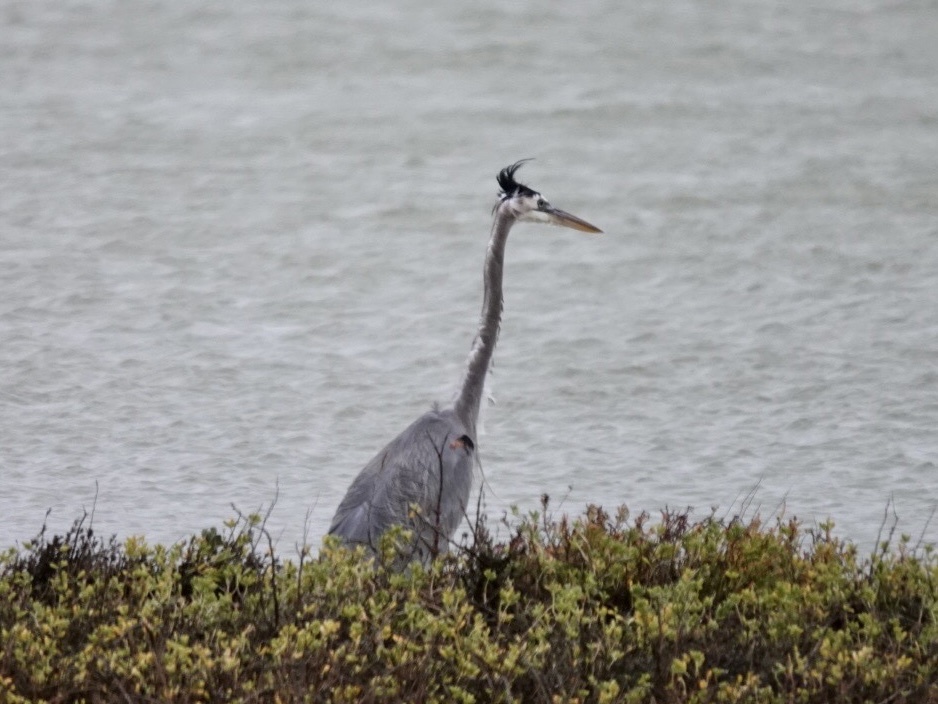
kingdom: Animalia
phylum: Chordata
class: Aves
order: Pelecaniformes
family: Ardeidae
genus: Ardea
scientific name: Ardea herodias
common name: Great blue heron
